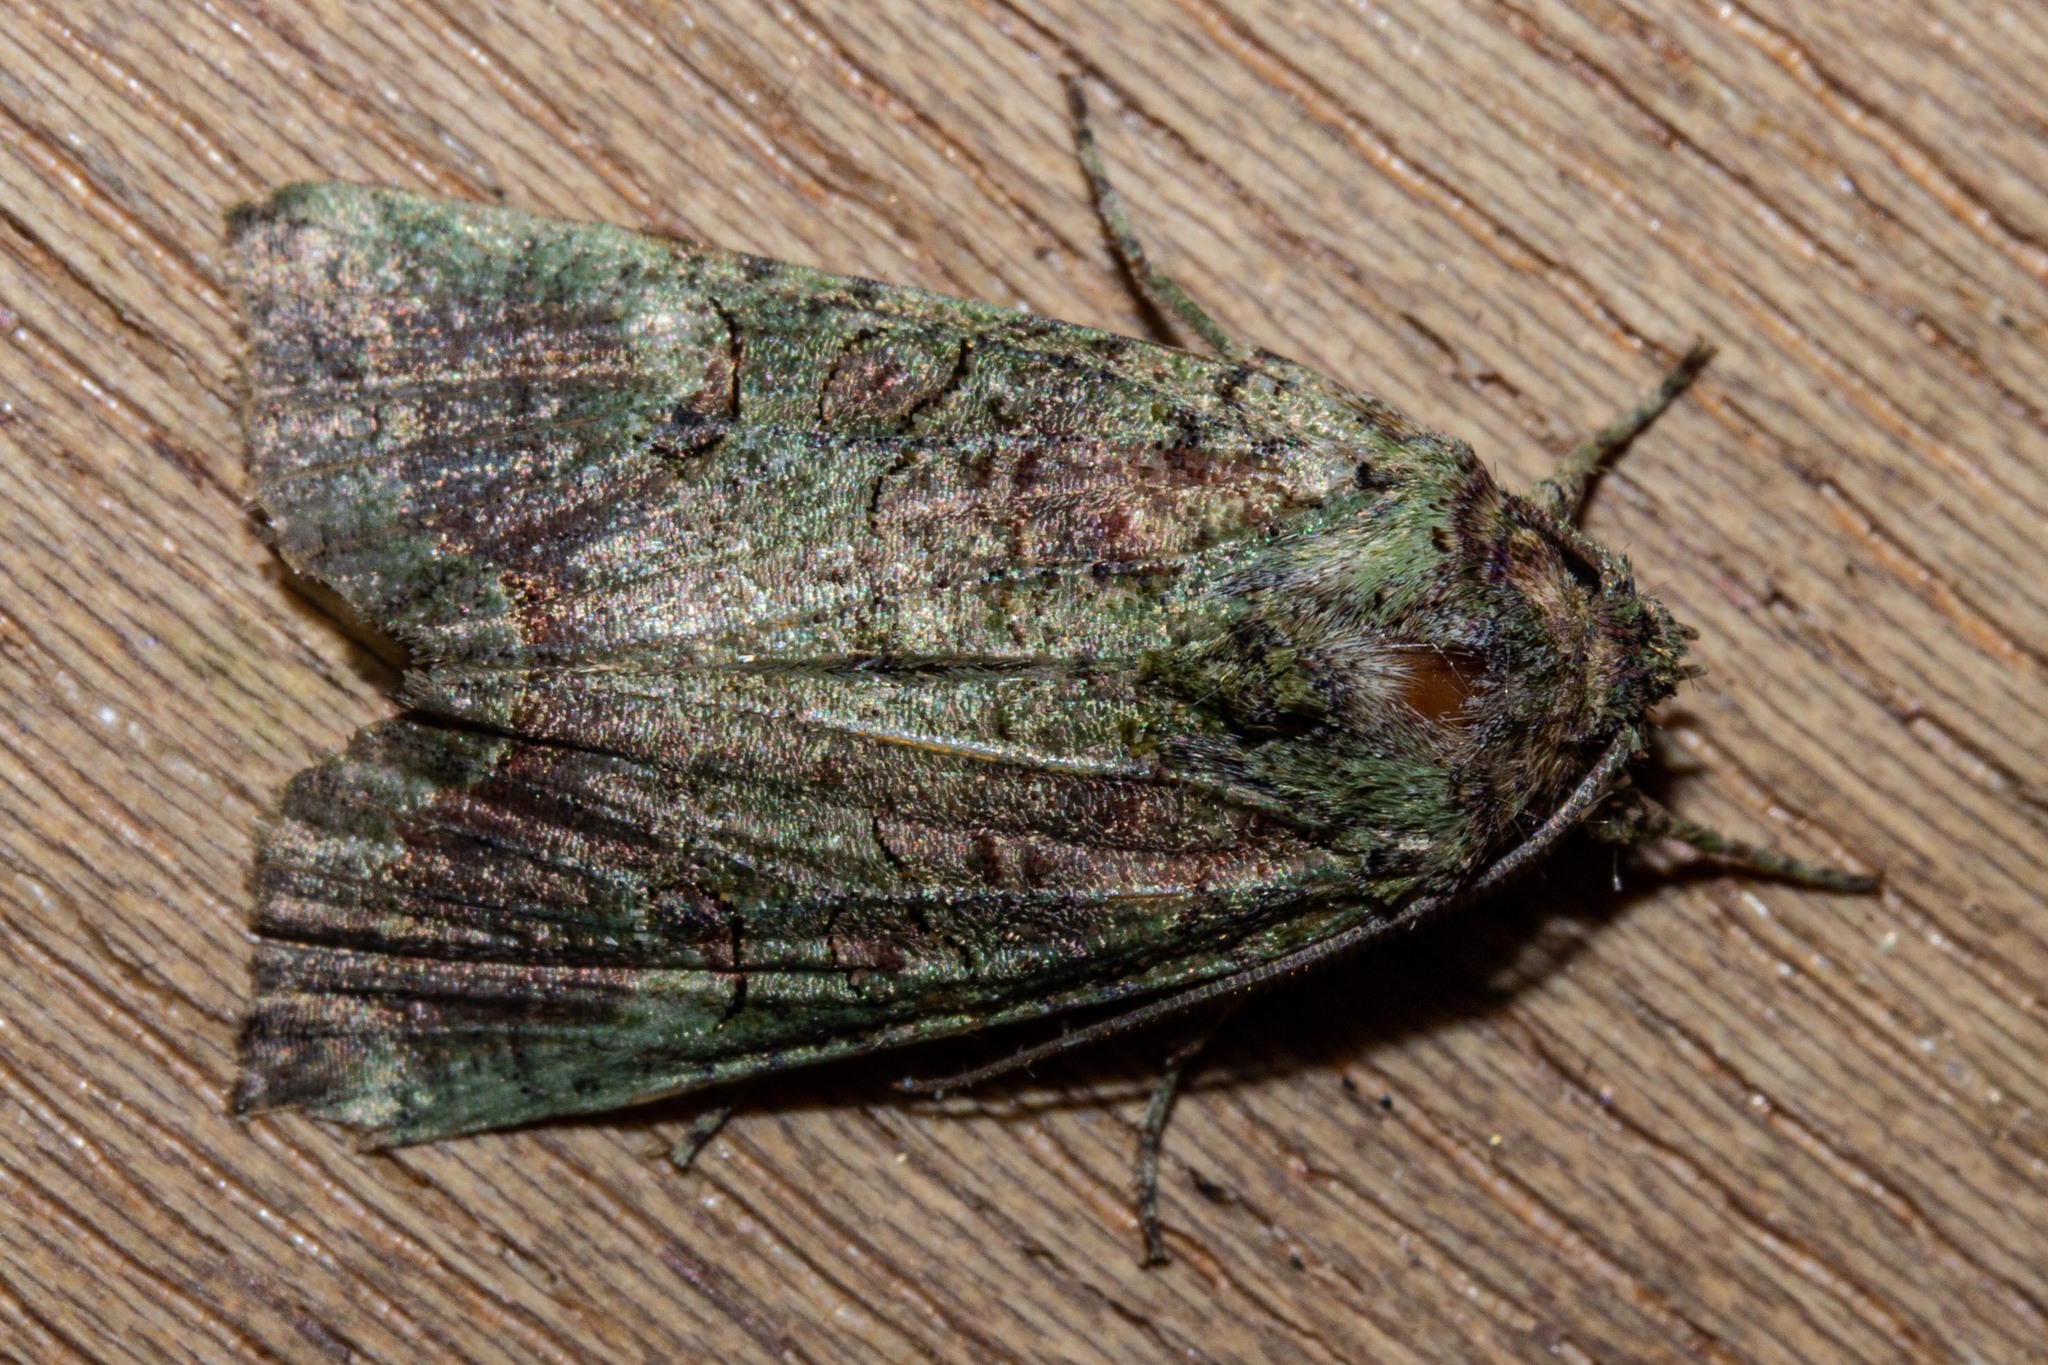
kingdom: Animalia
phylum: Arthropoda
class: Insecta
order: Lepidoptera
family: Noctuidae
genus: Meterana
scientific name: Meterana levis
